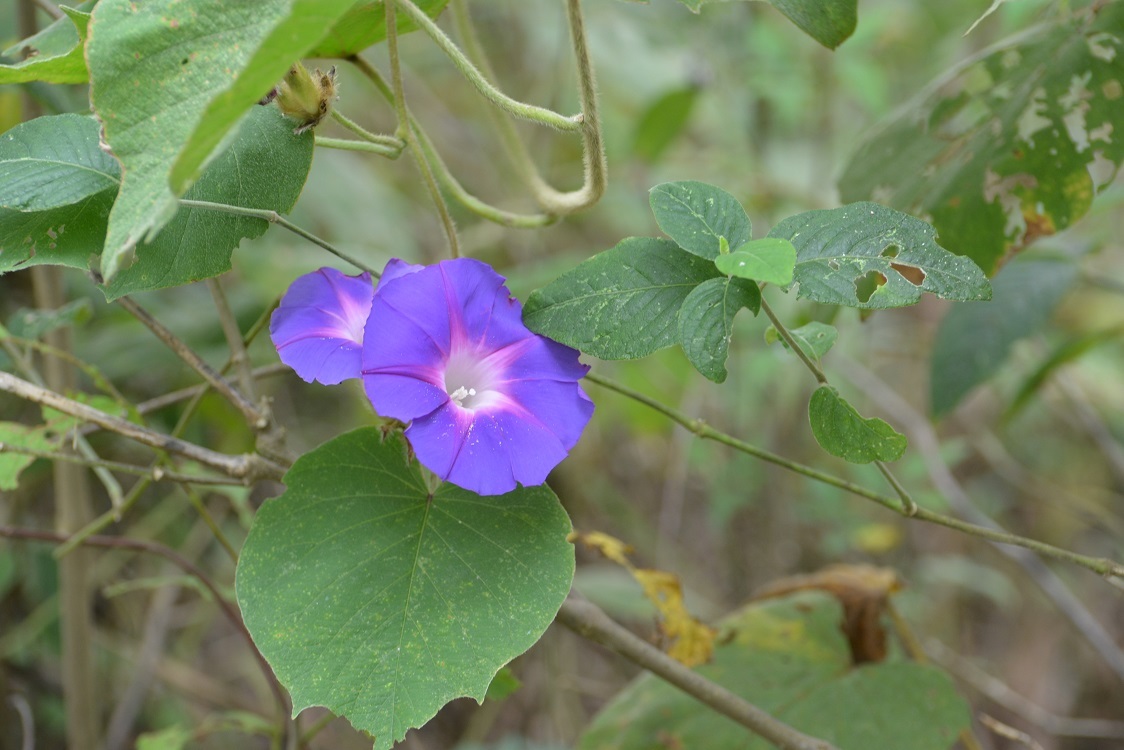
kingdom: Plantae
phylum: Tracheophyta
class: Magnoliopsida
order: Solanales
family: Convolvulaceae
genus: Ipomoea
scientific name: Ipomoea villifera
